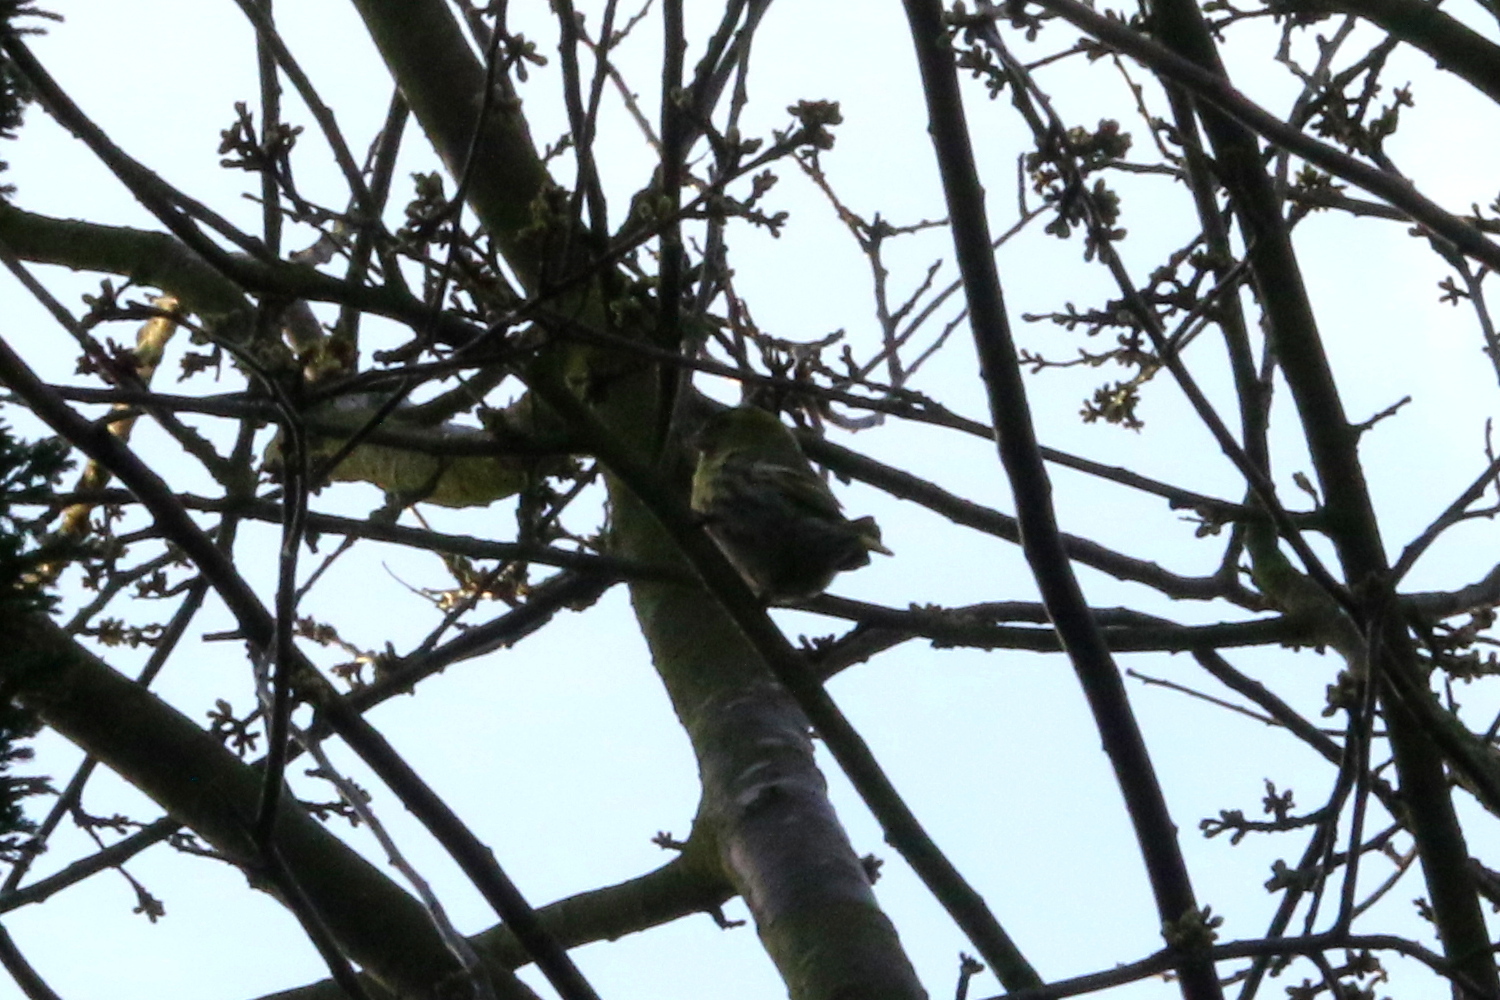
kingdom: Animalia
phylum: Chordata
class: Aves
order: Passeriformes
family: Fringillidae
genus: Spinus
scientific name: Spinus spinus
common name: Eurasian siskin
